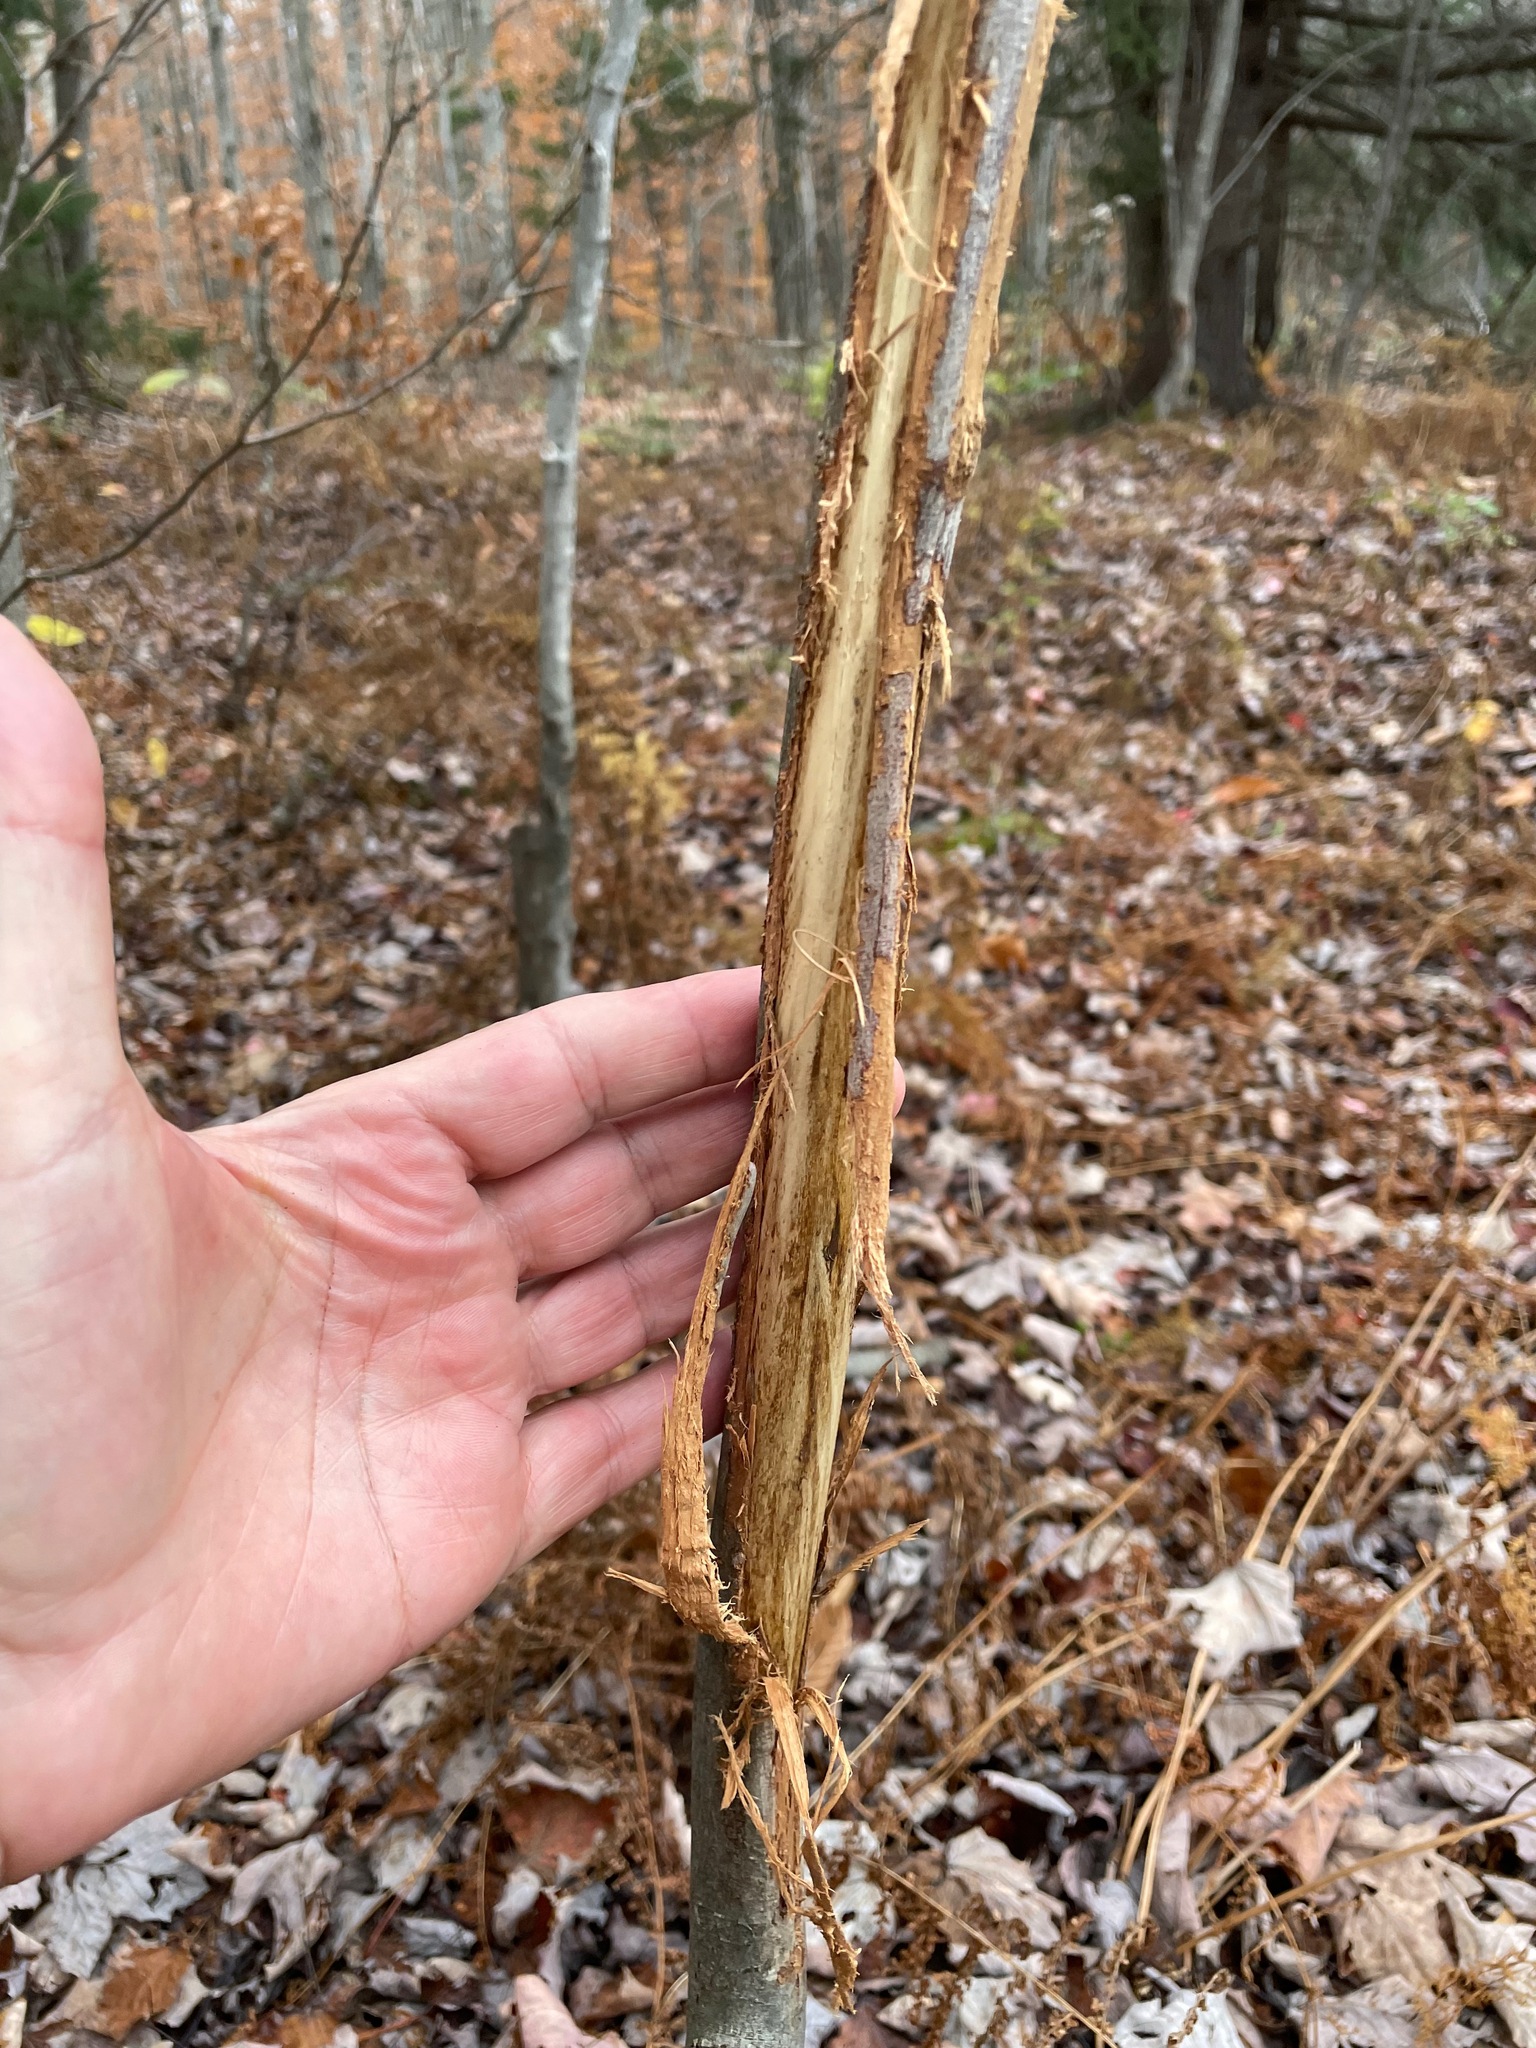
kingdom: Animalia
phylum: Chordata
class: Mammalia
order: Artiodactyla
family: Cervidae
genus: Odocoileus
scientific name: Odocoileus virginianus
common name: White-tailed deer
